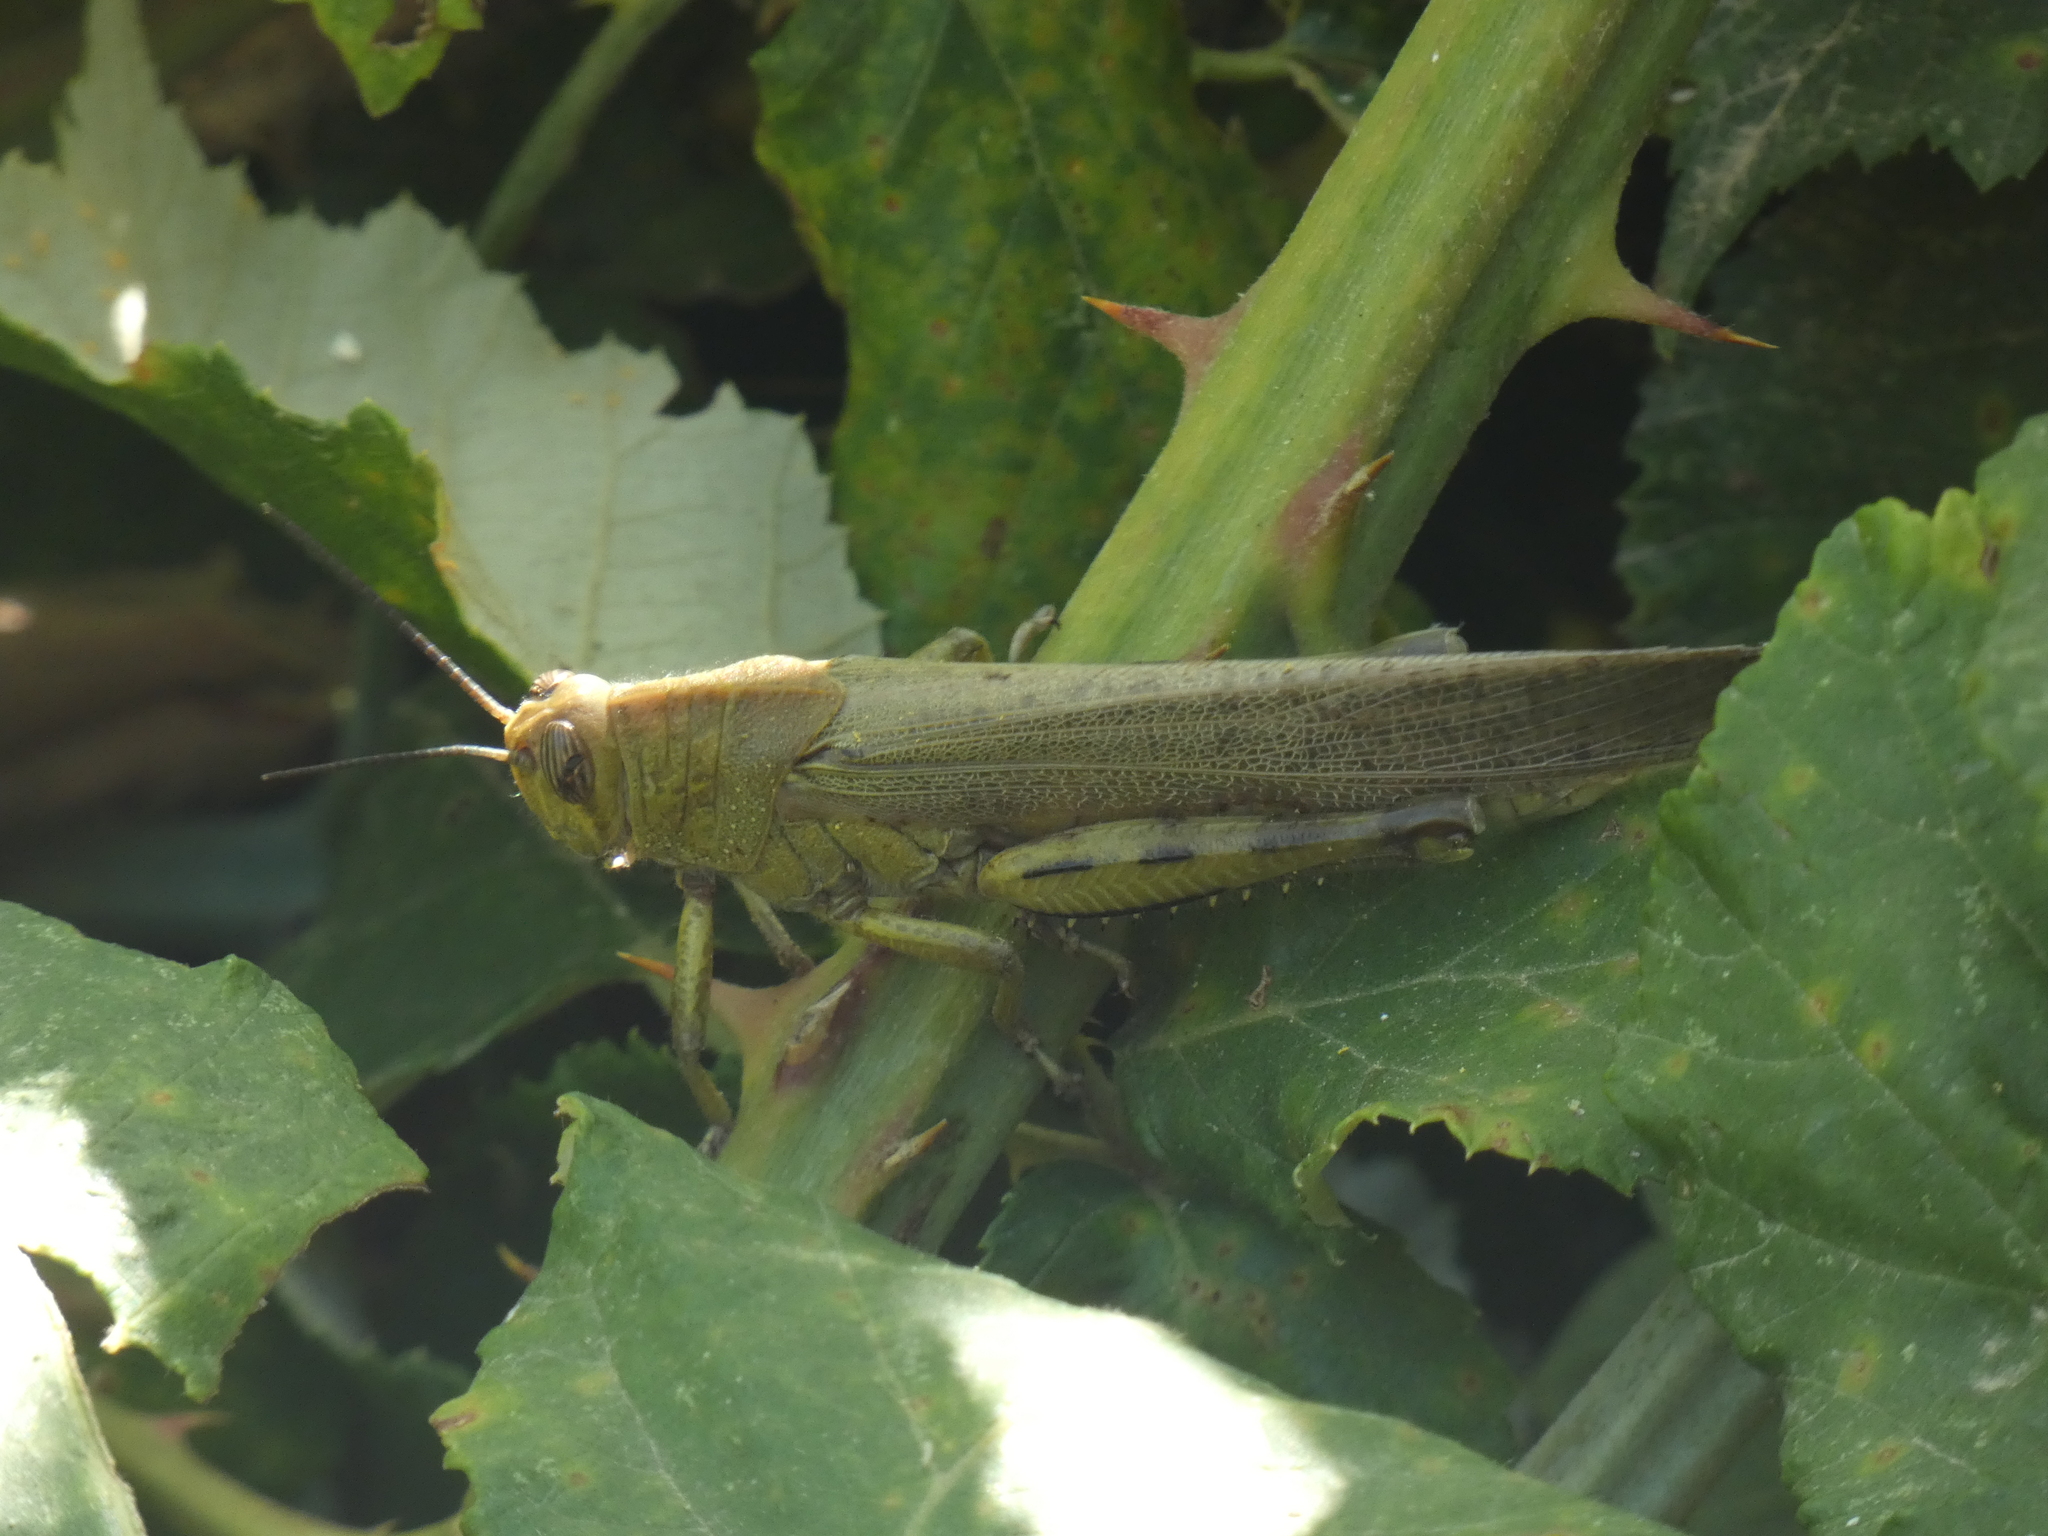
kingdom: Animalia
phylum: Arthropoda
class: Insecta
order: Orthoptera
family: Acrididae
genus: Anacridium
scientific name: Anacridium aegyptium
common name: Egyptian grasshopper
